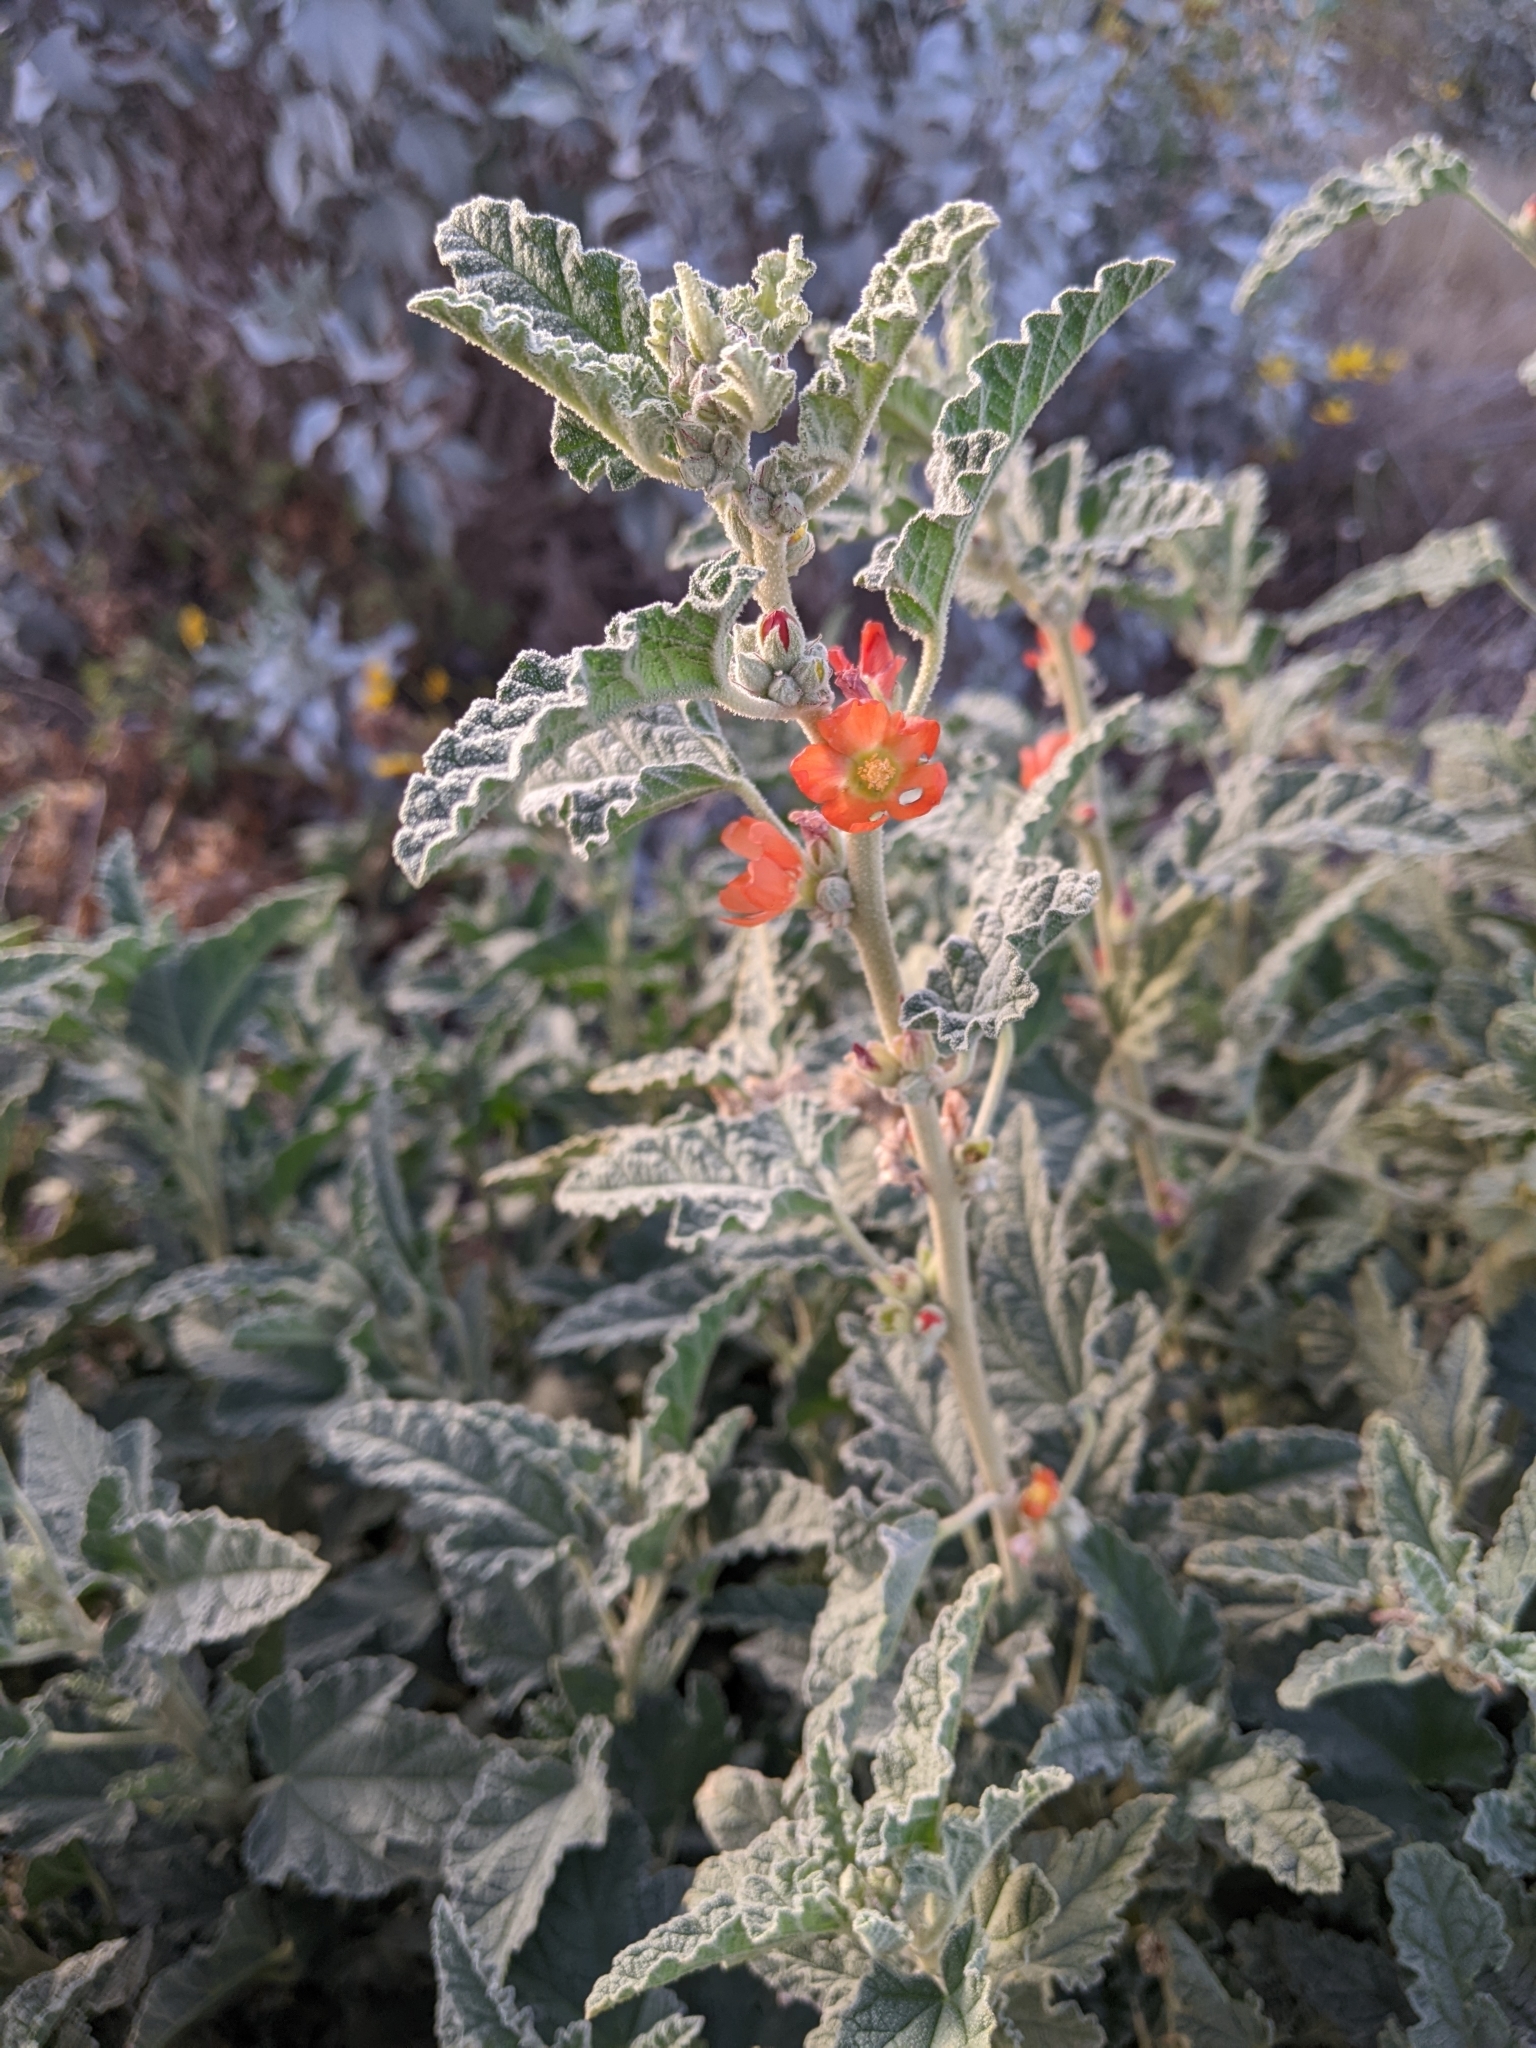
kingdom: Plantae
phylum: Tracheophyta
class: Magnoliopsida
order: Malvales
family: Malvaceae
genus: Sphaeralcea
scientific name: Sphaeralcea
